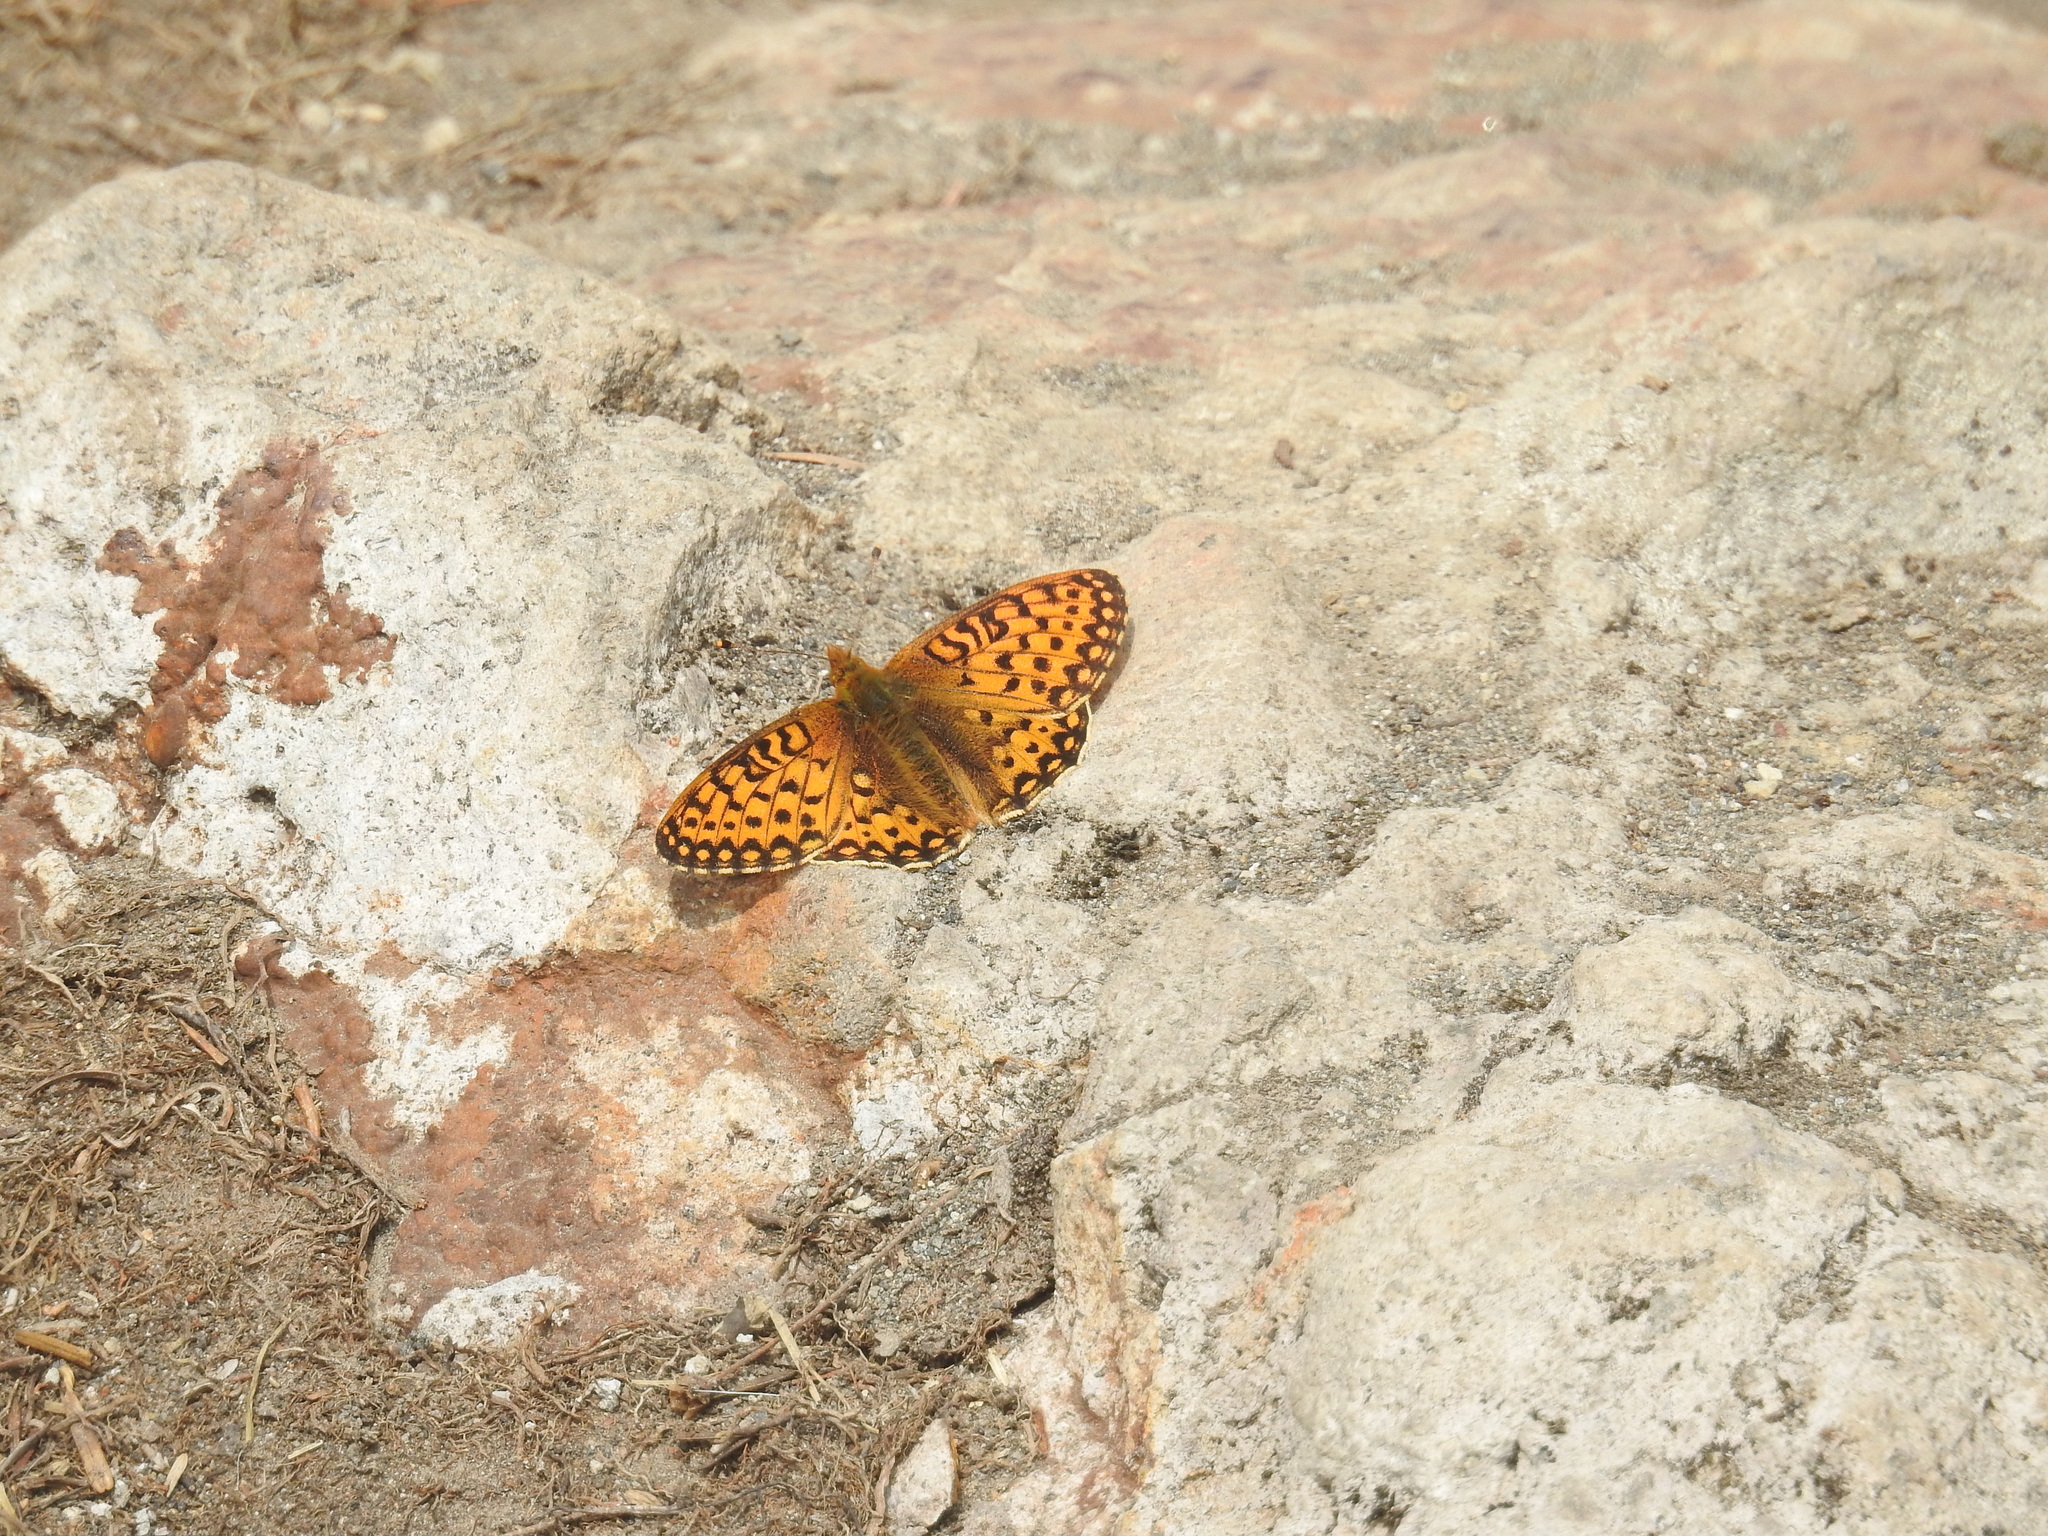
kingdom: Animalia
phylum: Arthropoda
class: Insecta
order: Lepidoptera
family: Nymphalidae
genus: Speyeria
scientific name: Speyeria mormonia
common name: Mormon fritillary
